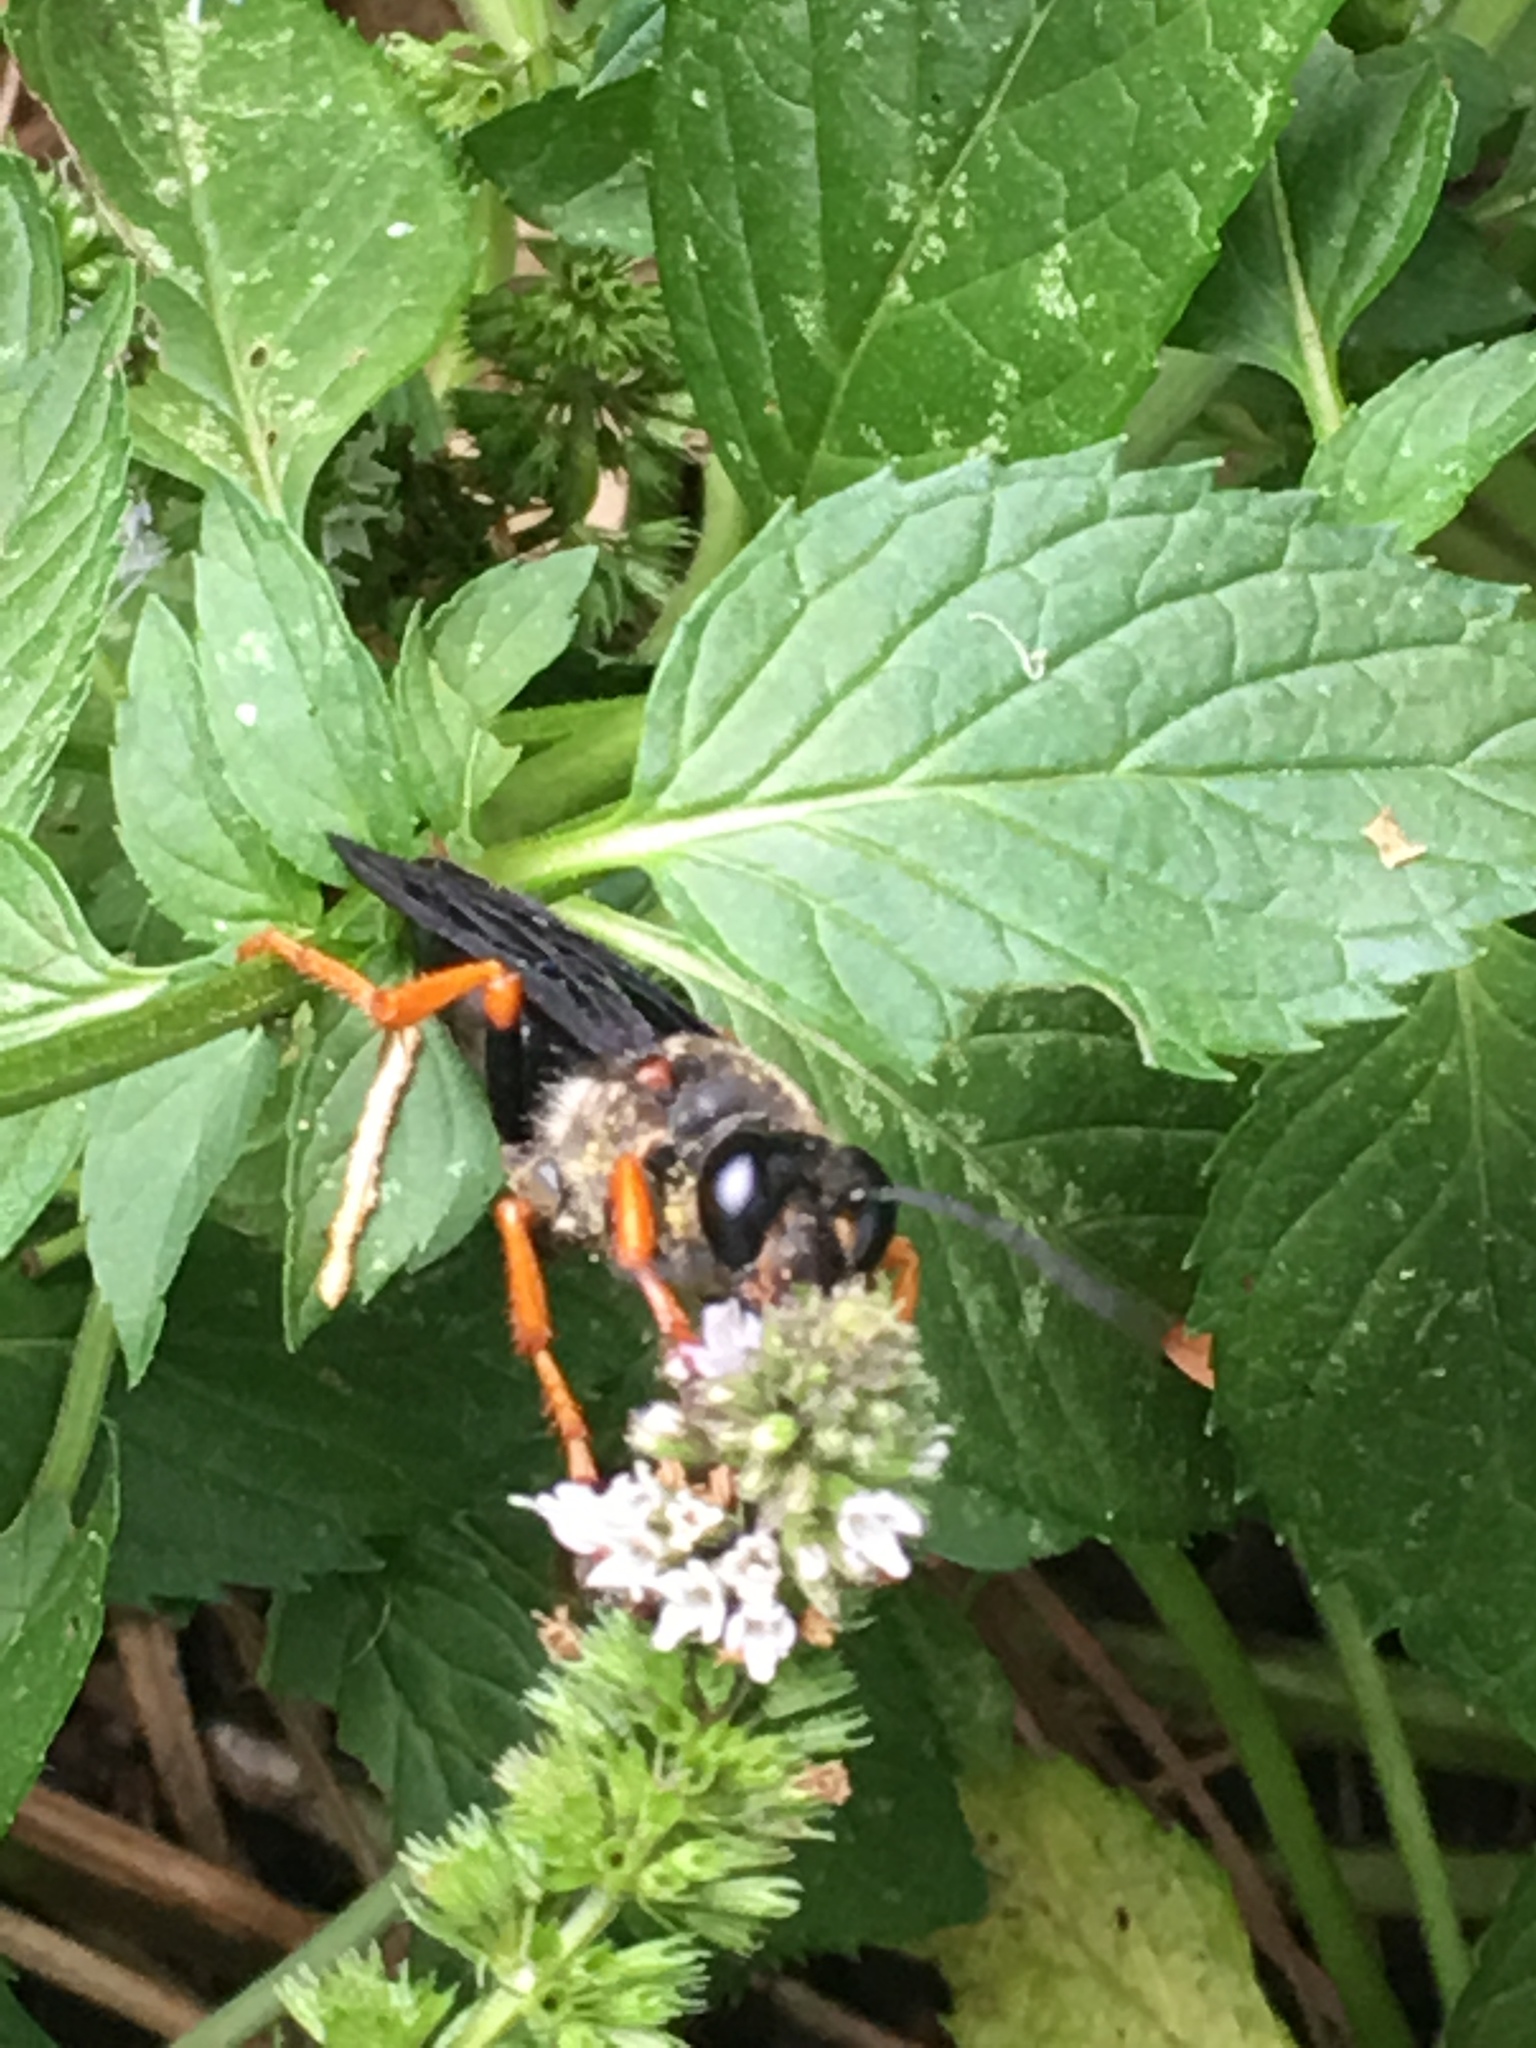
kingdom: Animalia
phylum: Arthropoda
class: Insecta
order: Hymenoptera
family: Sphecidae
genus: Sphex
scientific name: Sphex nudus
